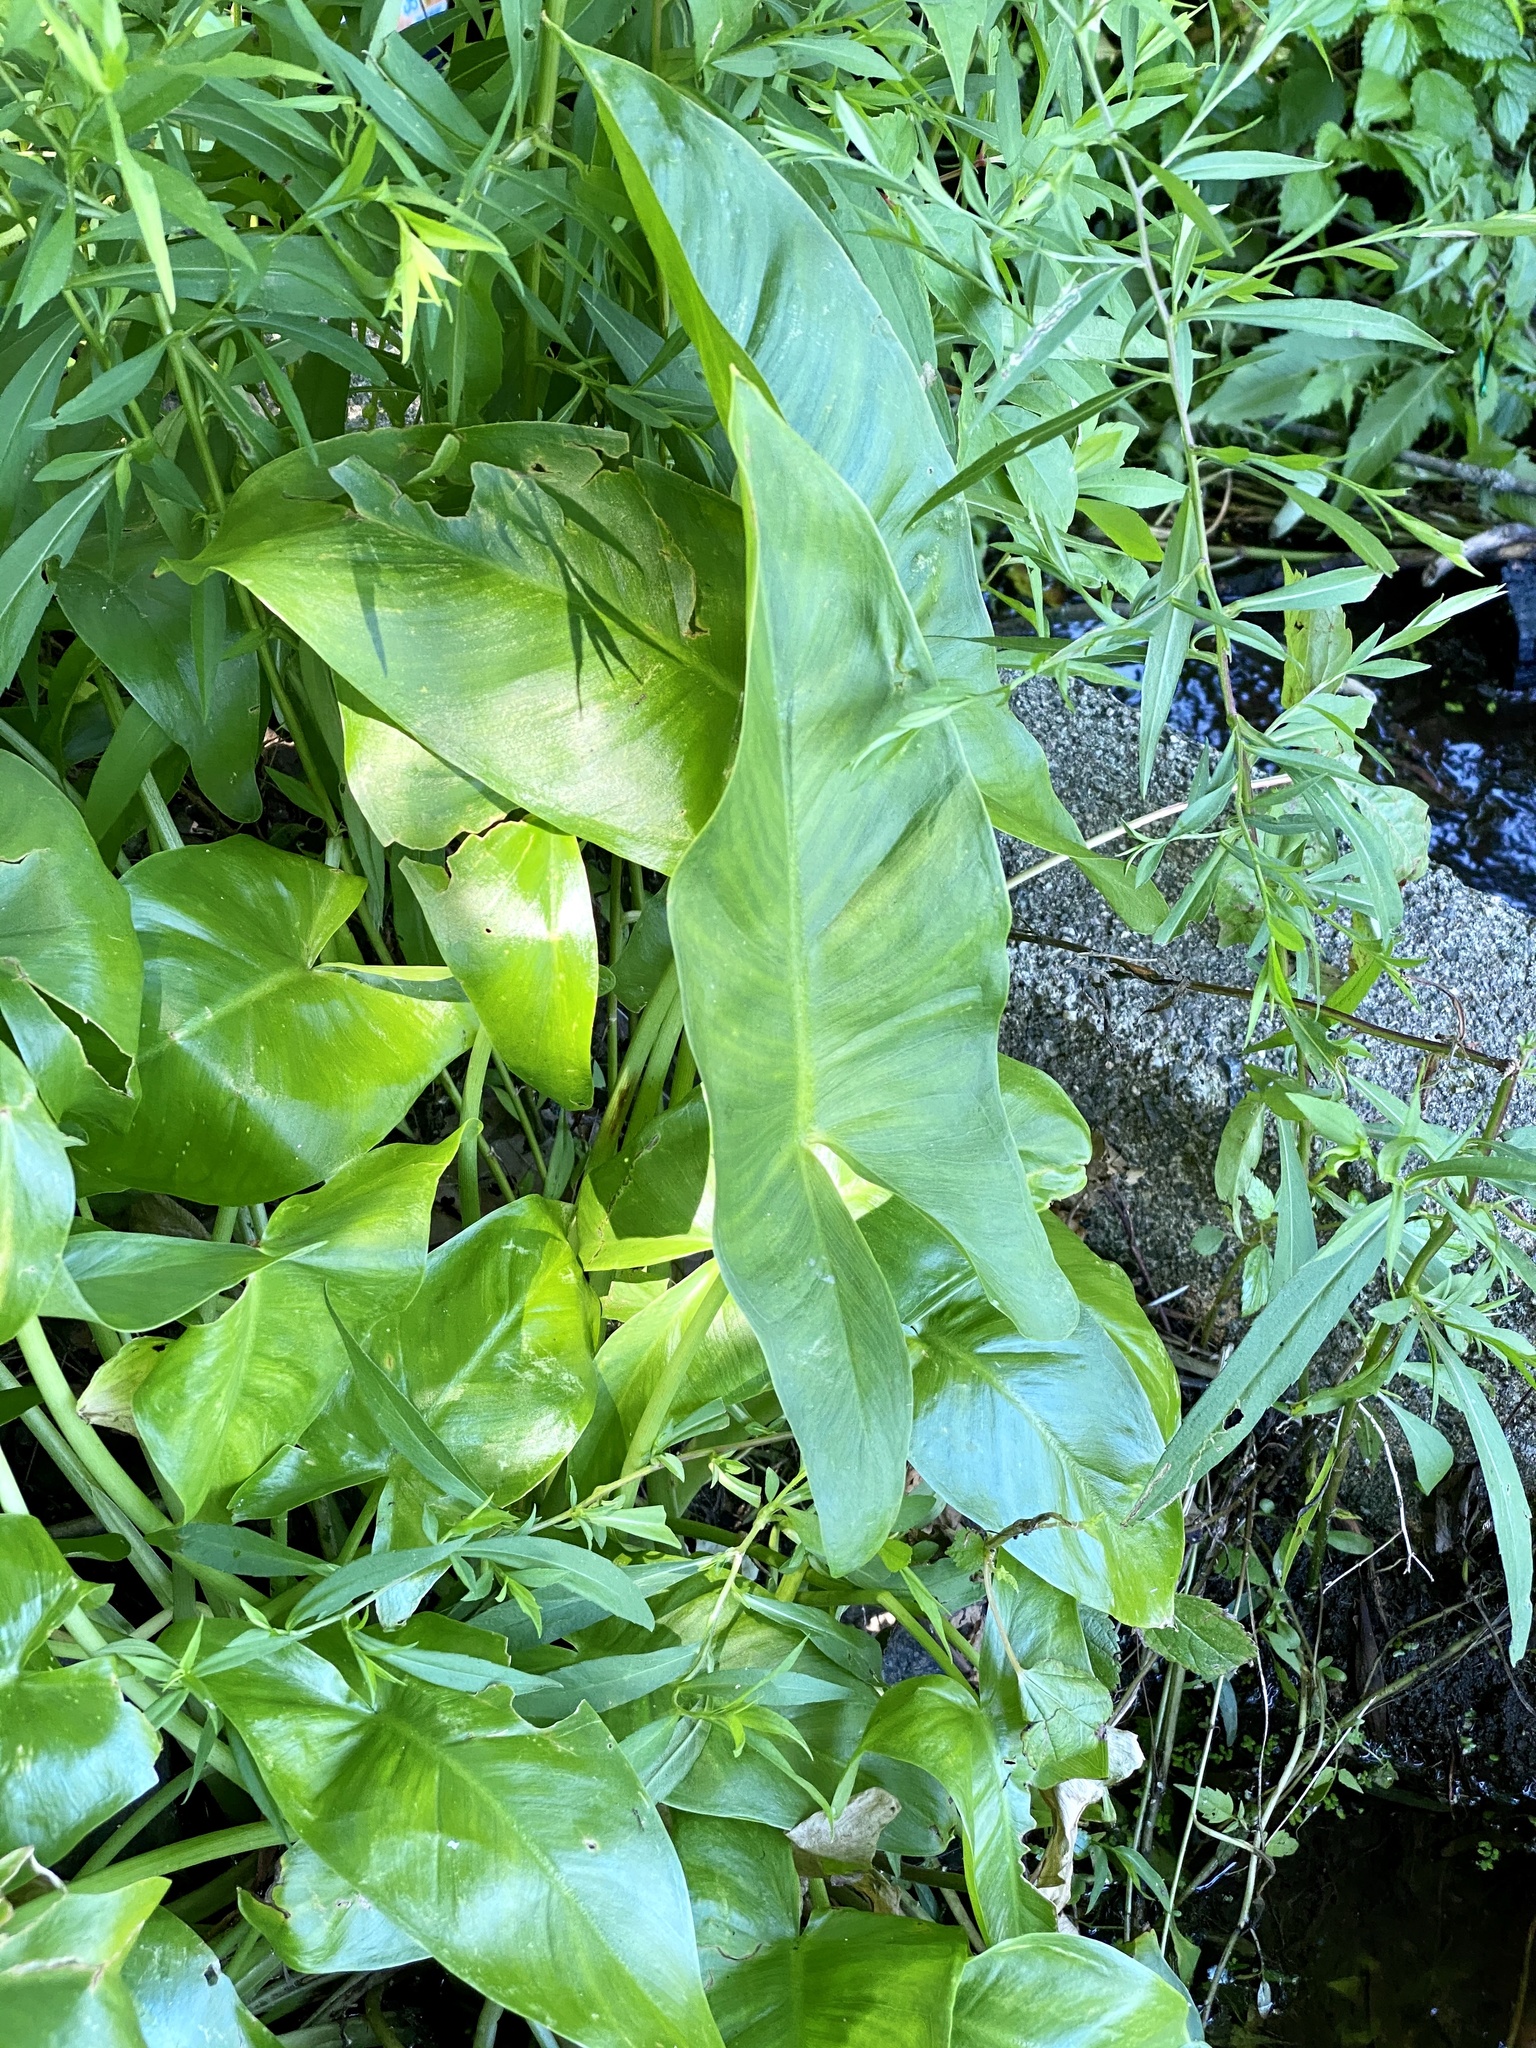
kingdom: Plantae
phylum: Tracheophyta
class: Liliopsida
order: Alismatales
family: Araceae
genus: Peltandra
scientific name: Peltandra virginica
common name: Arrow arum
